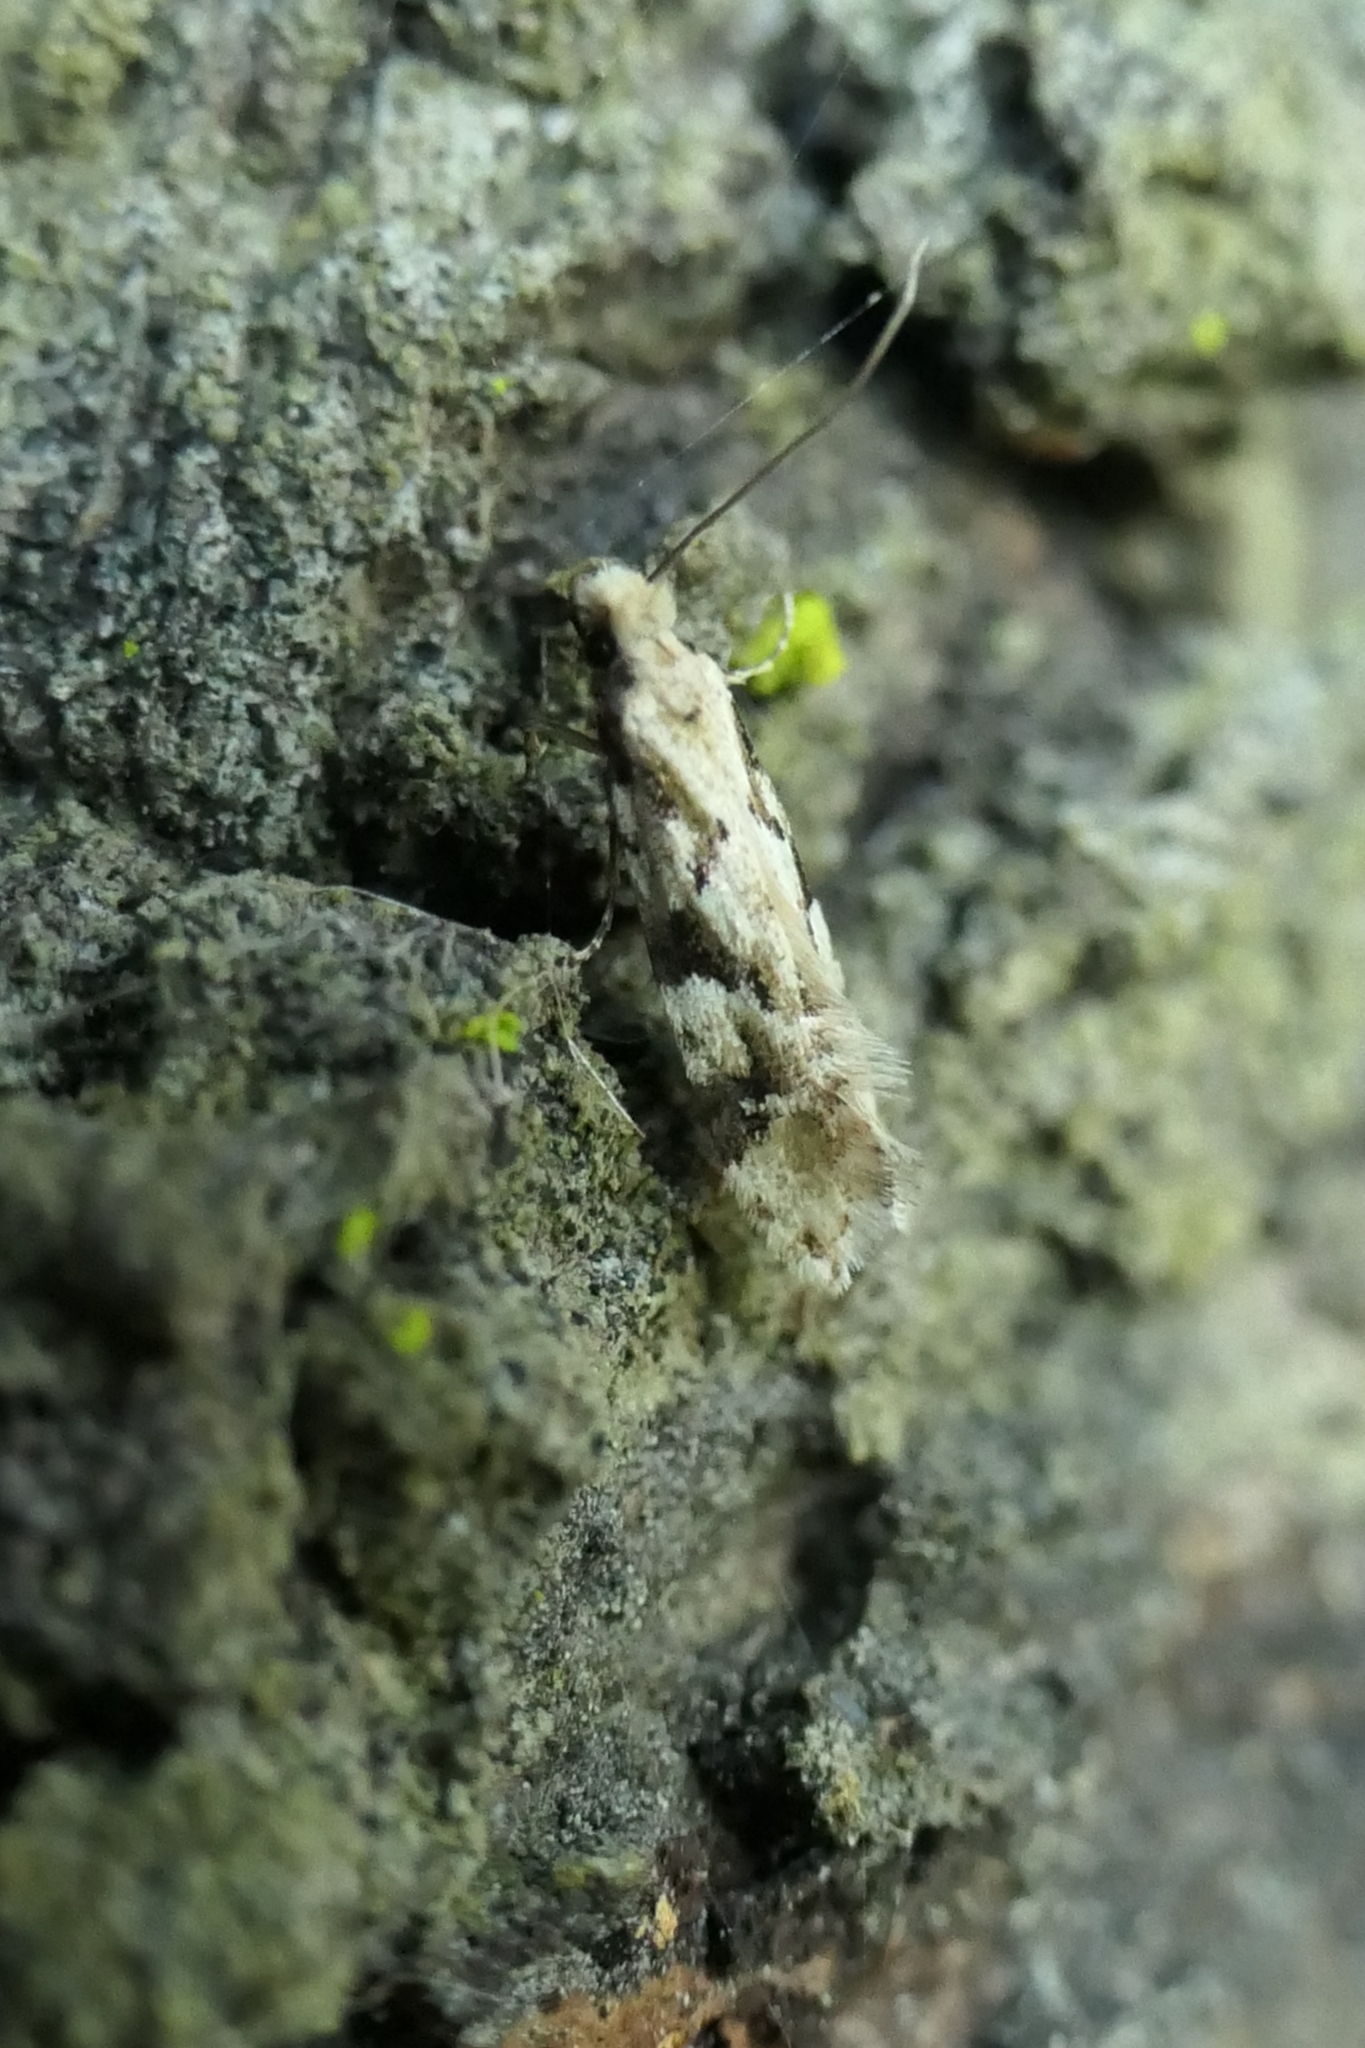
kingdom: Animalia
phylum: Arthropoda
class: Insecta
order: Lepidoptera
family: Tineidae
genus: Crypsitricha
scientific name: Crypsitricha mesotypa
